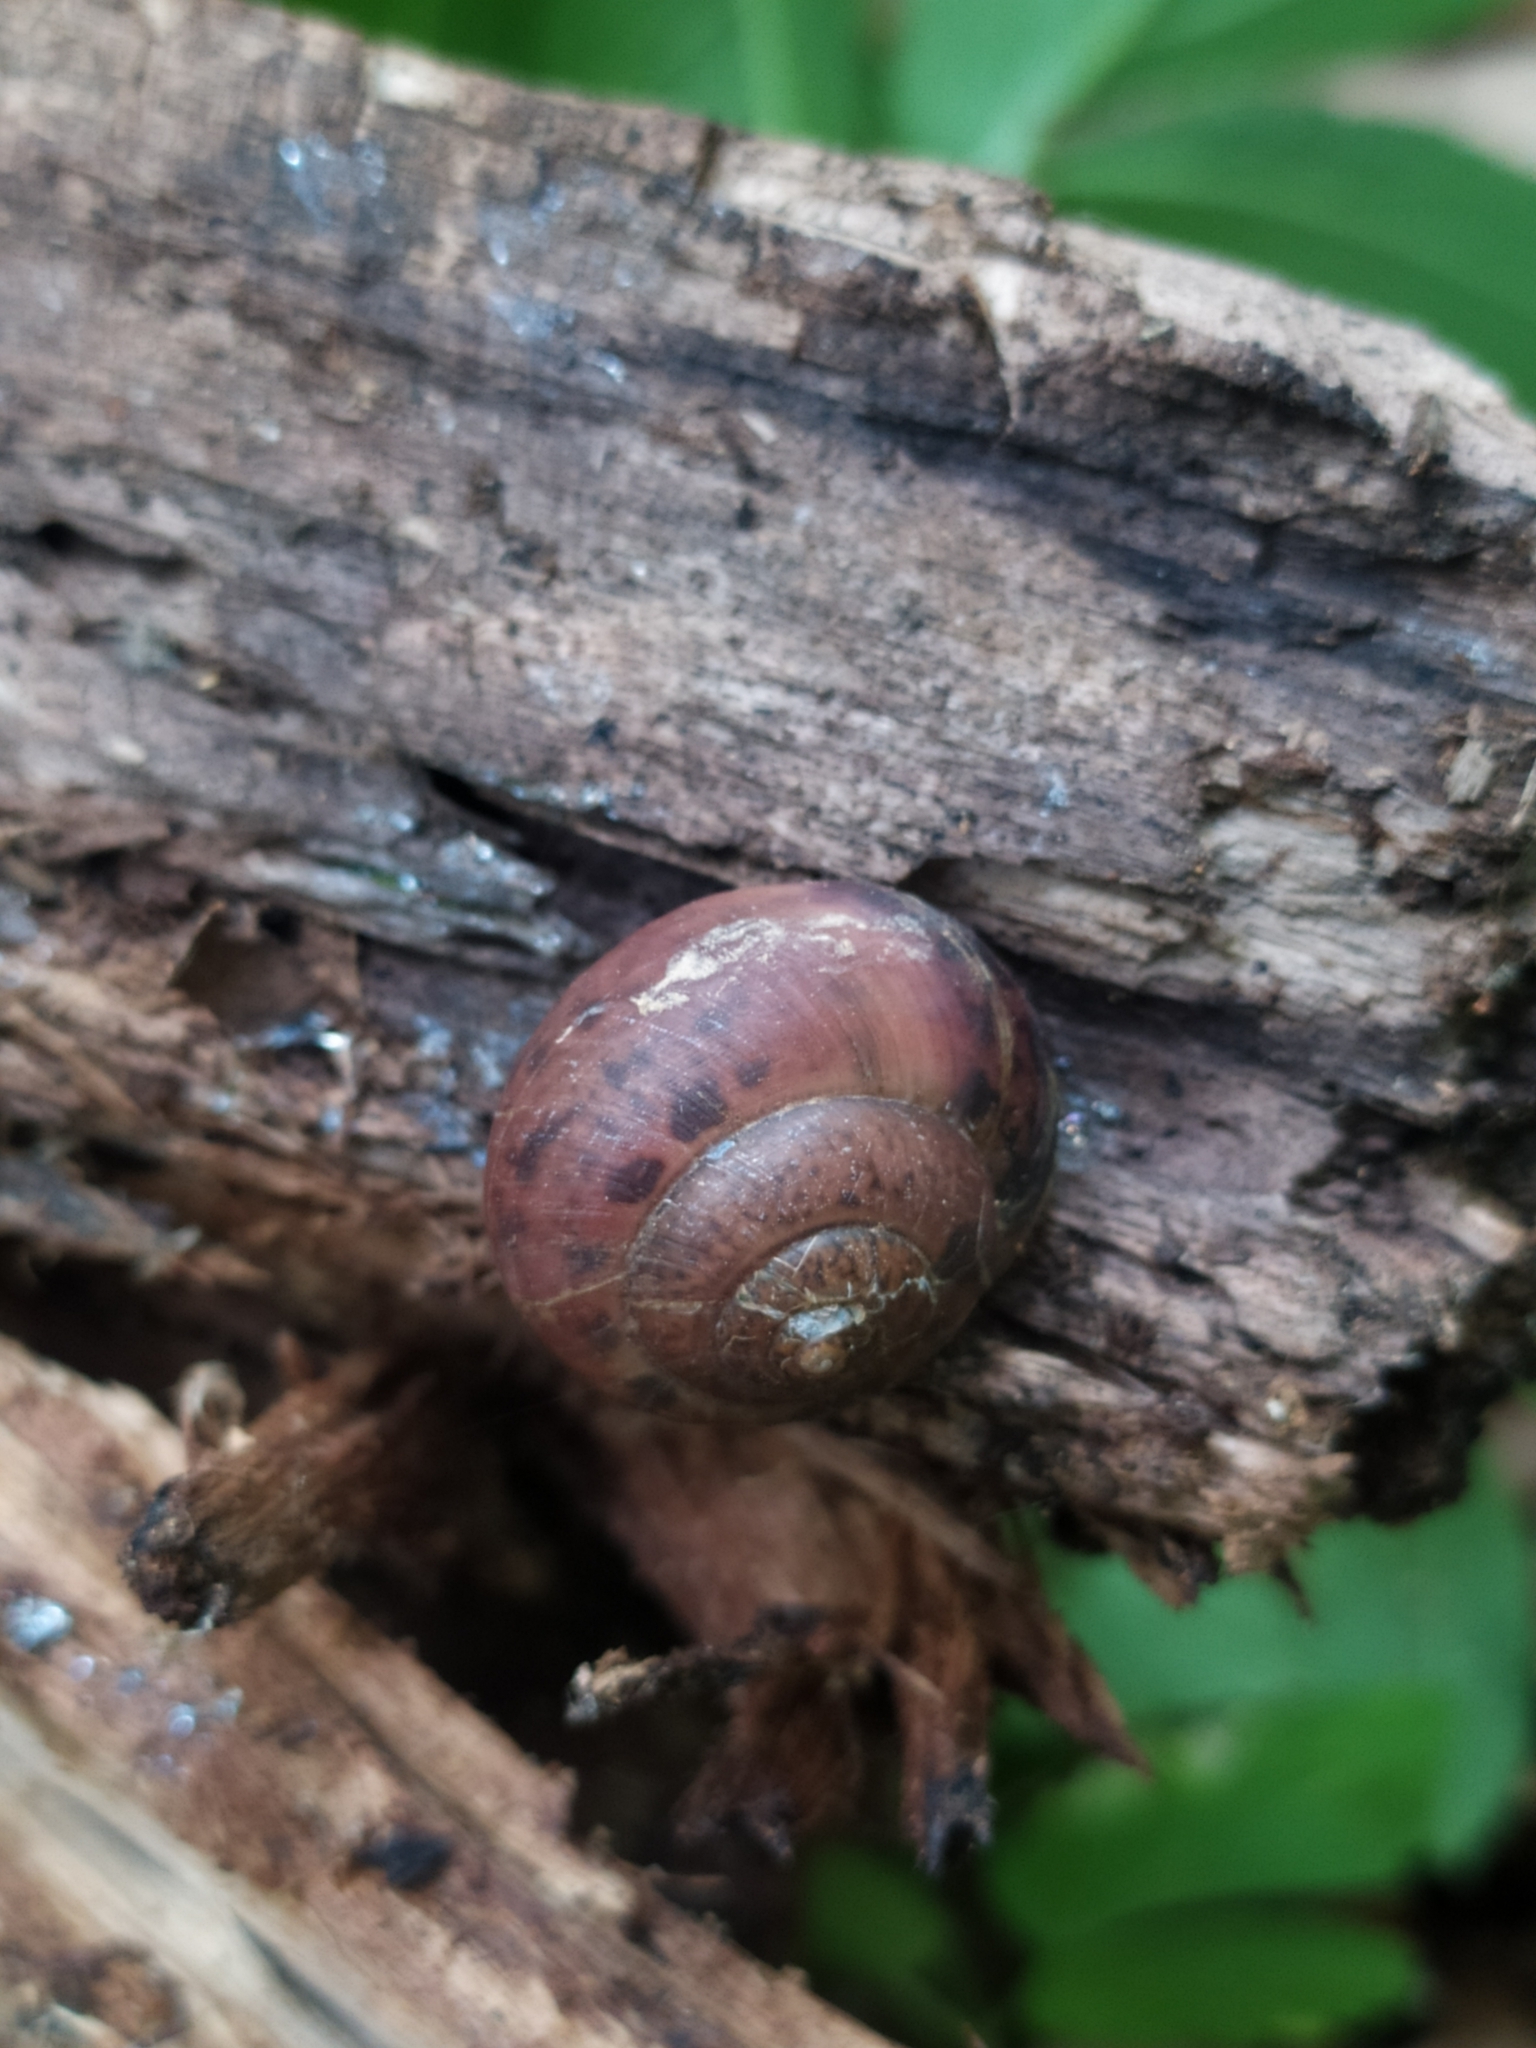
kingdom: Animalia
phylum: Mollusca
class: Gastropoda
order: Stylommatophora
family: Camaenidae
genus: Fruticicola
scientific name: Fruticicola fruticum
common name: Bush snail
